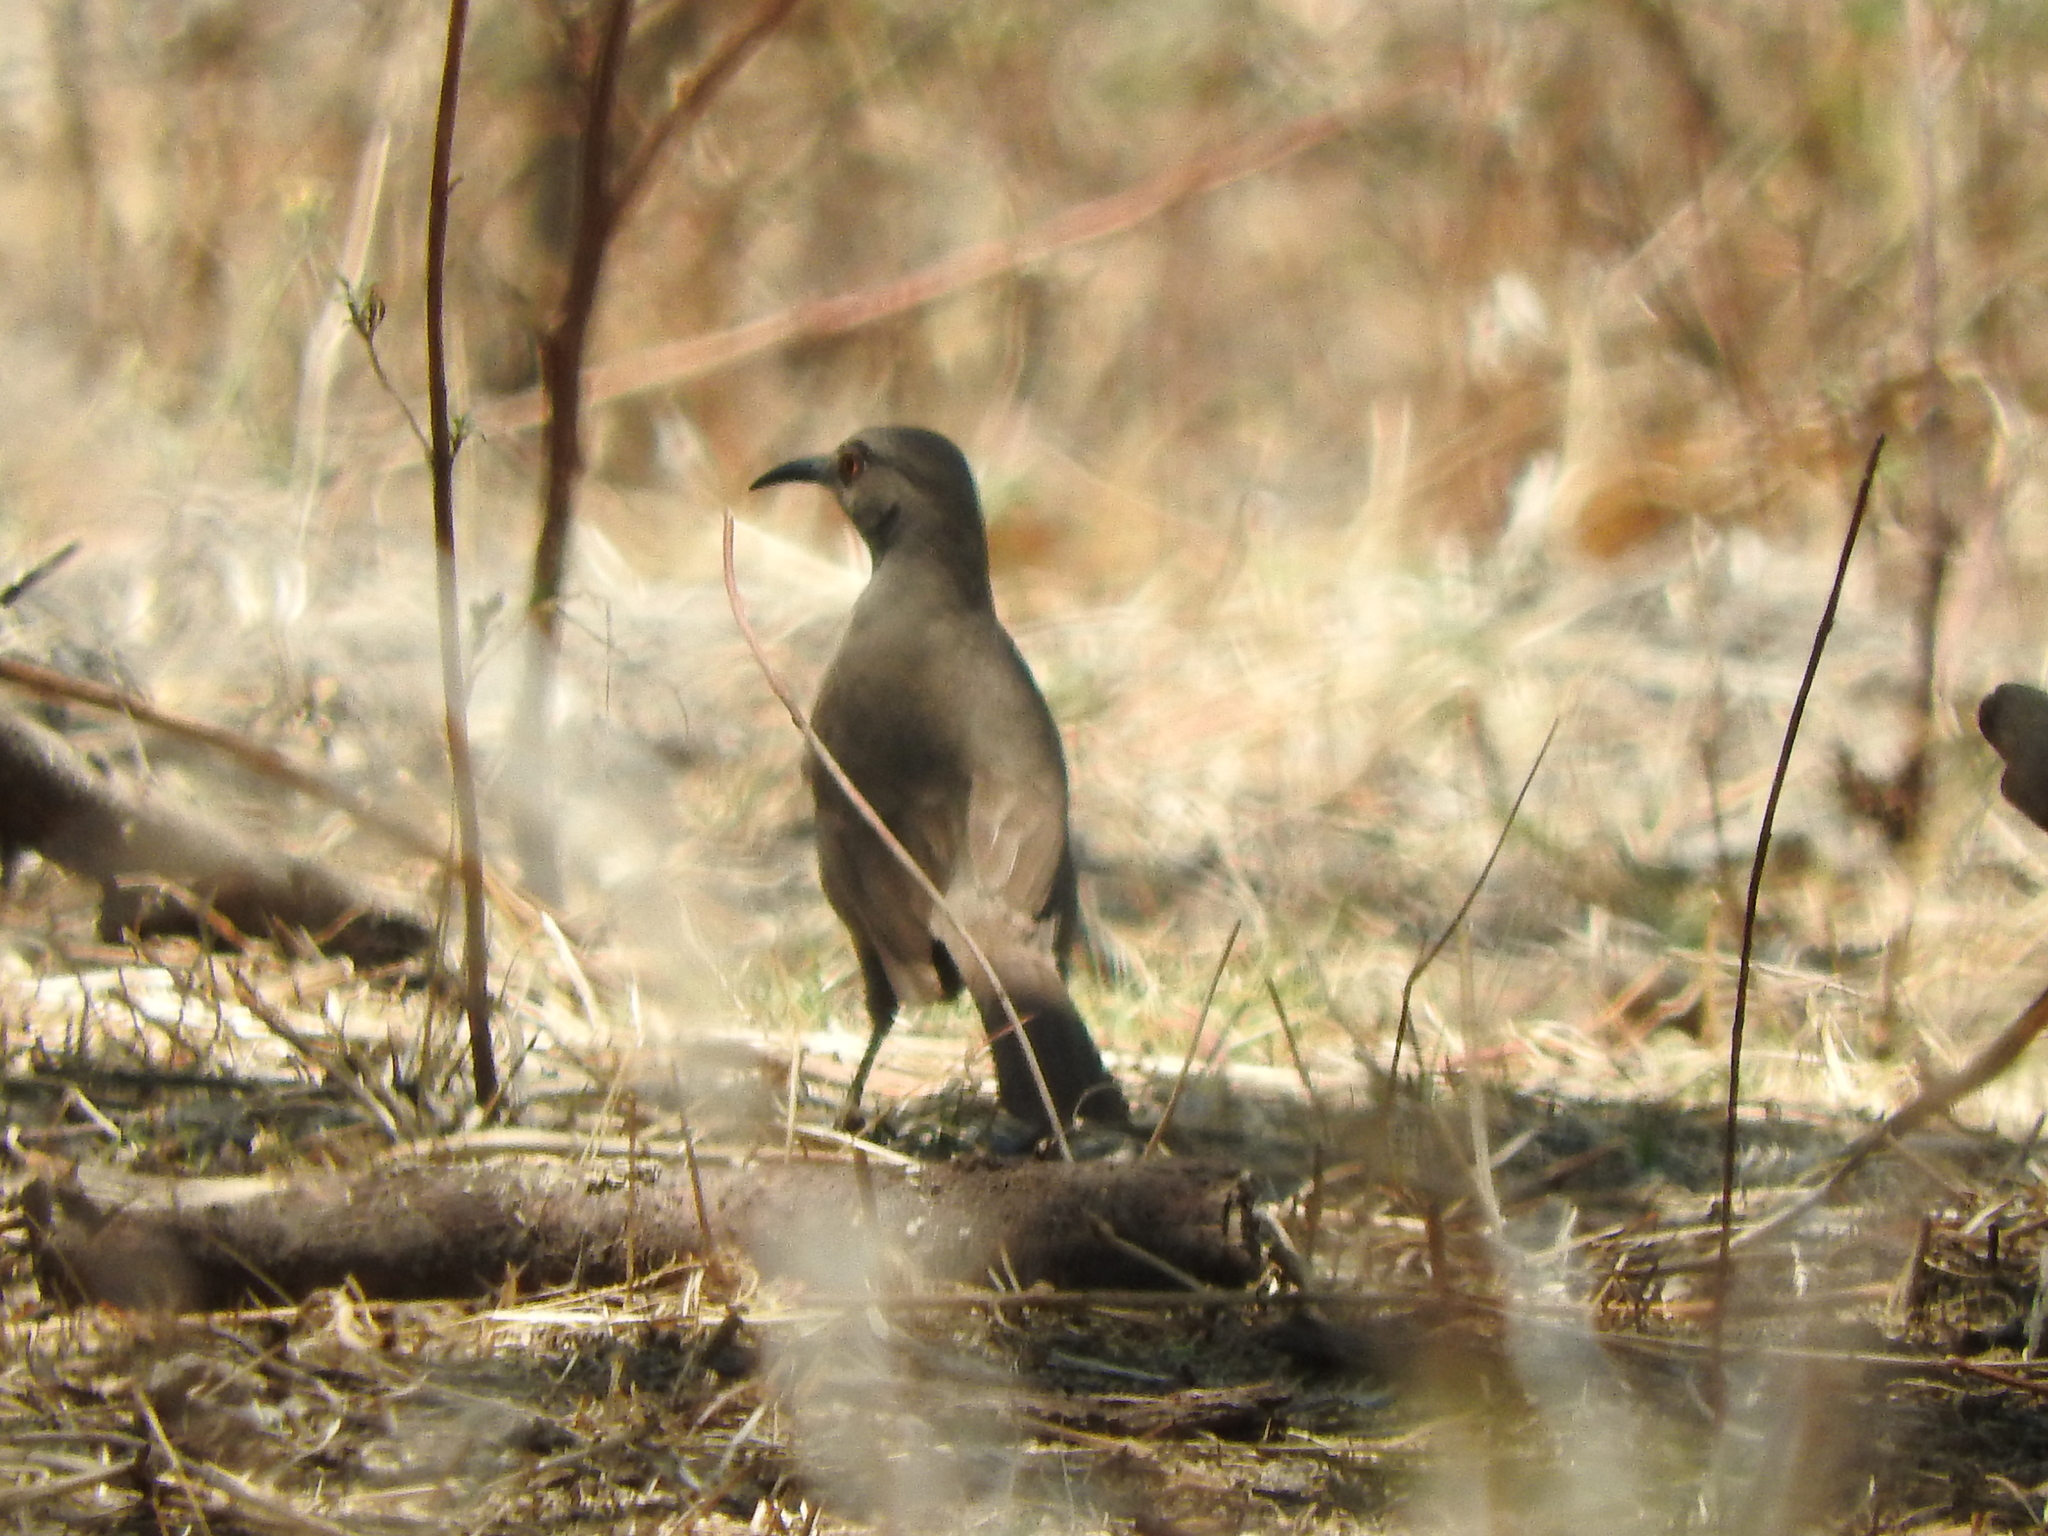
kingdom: Animalia
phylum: Chordata
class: Aves
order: Passeriformes
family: Mimidae
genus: Toxostoma
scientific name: Toxostoma curvirostre
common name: Curve-billed thrasher
